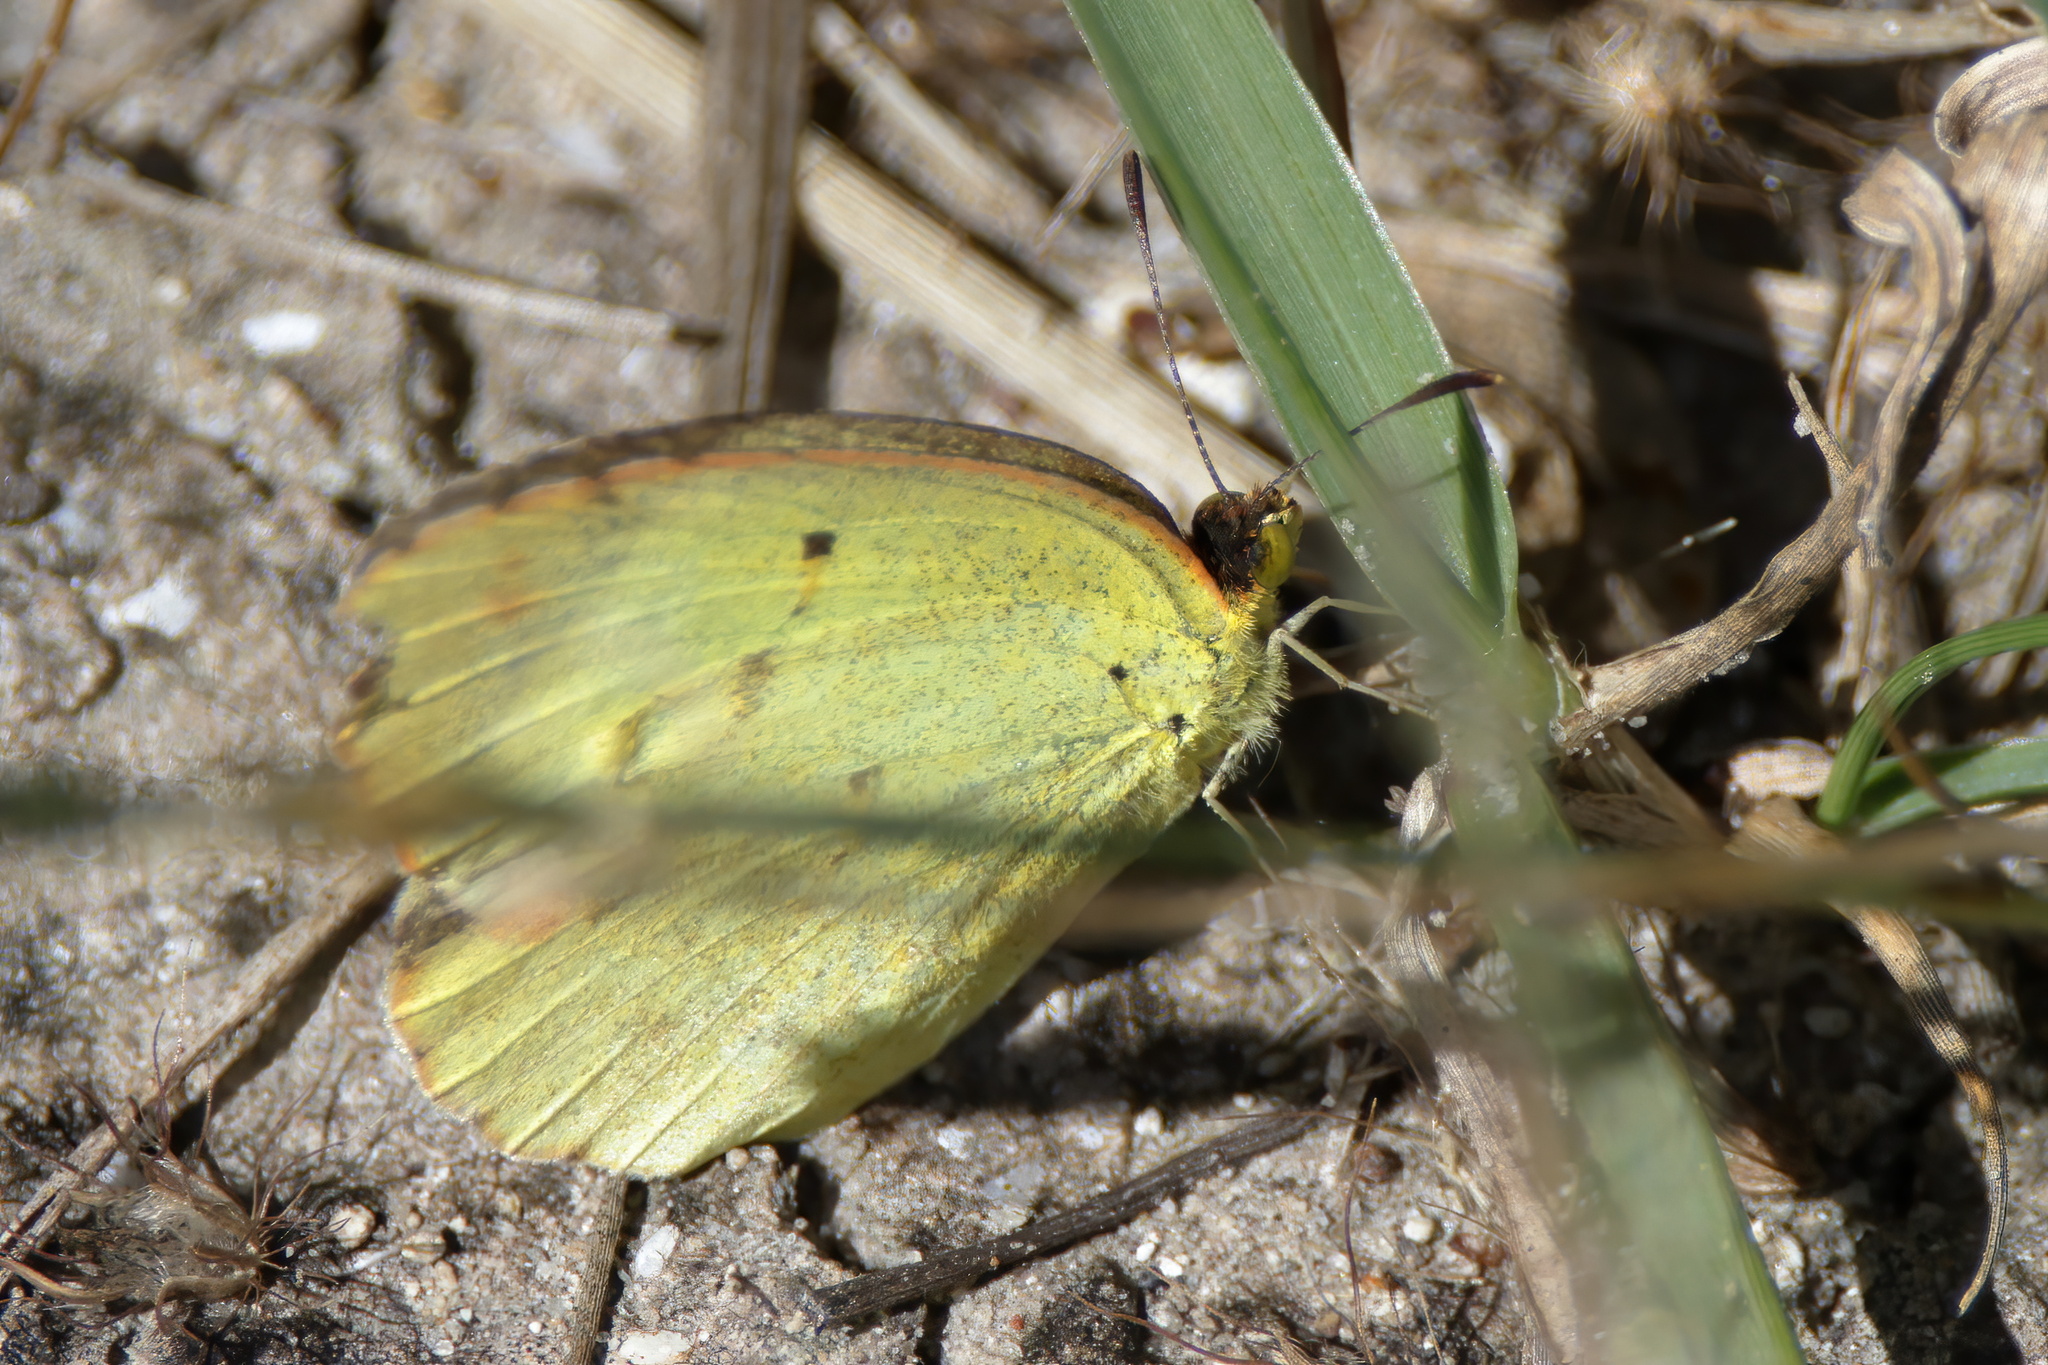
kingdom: Animalia
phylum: Arthropoda
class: Insecta
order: Lepidoptera
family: Pieridae
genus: Pyrisitia
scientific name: Pyrisitia lisa
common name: Little yellow
